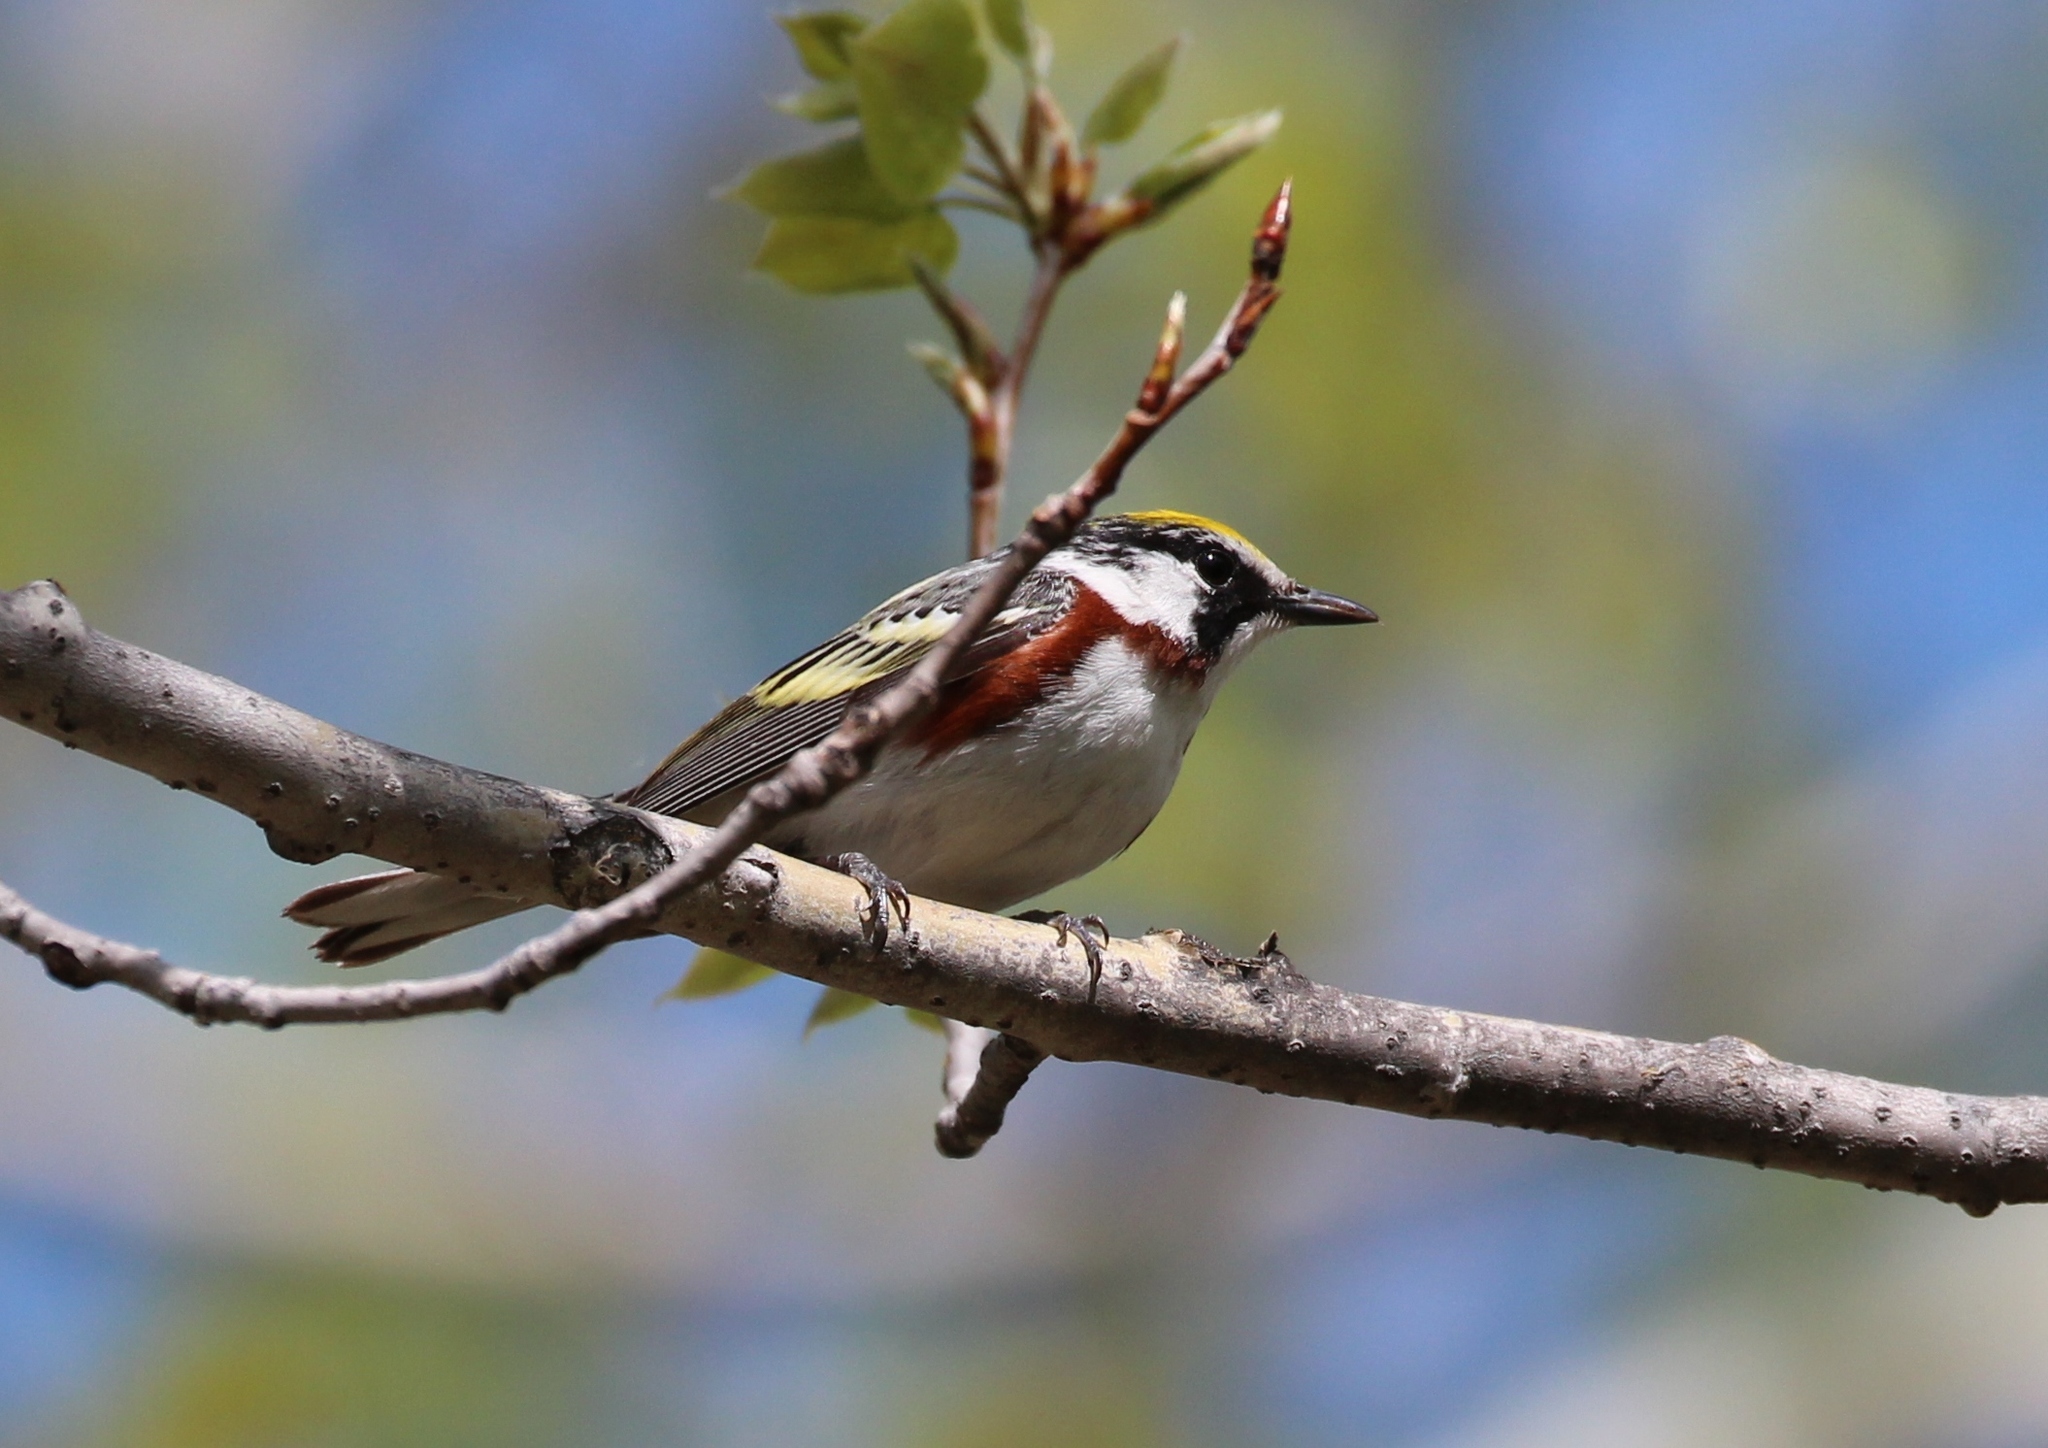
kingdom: Animalia
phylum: Chordata
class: Aves
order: Passeriformes
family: Parulidae
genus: Setophaga
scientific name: Setophaga pensylvanica
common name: Chestnut-sided warbler
